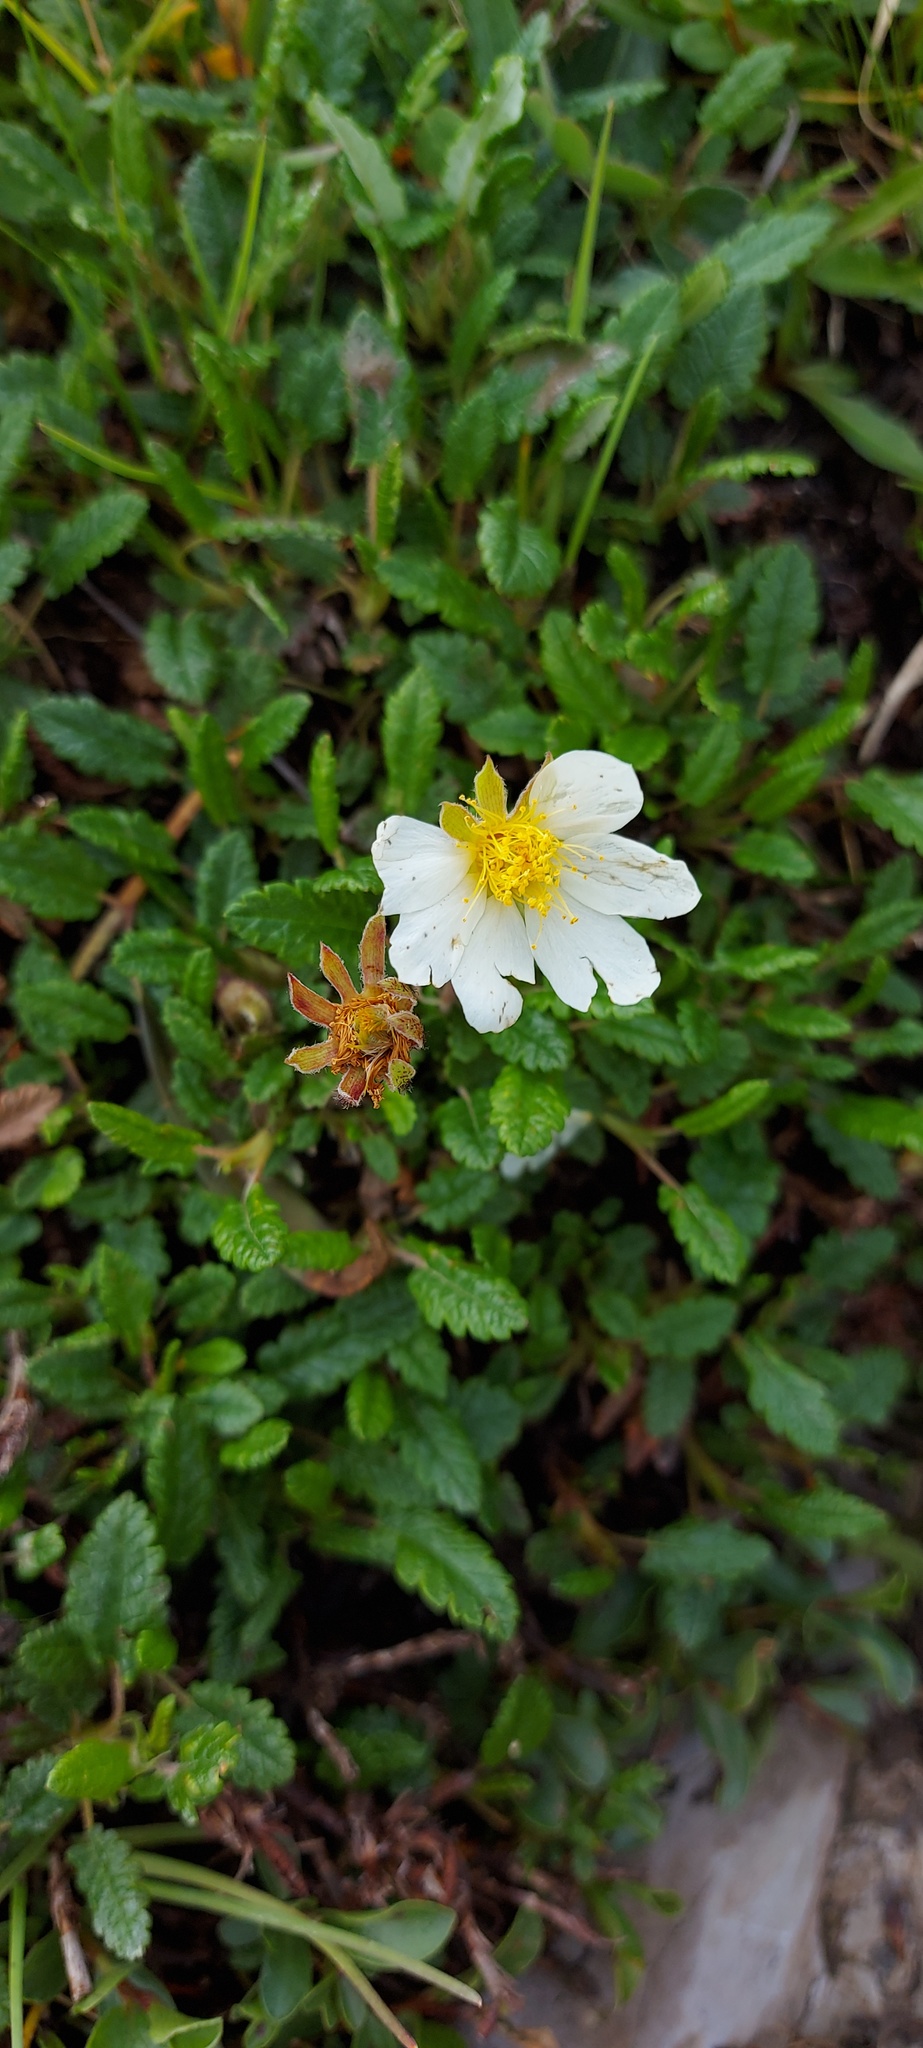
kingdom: Plantae
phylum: Tracheophyta
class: Magnoliopsida
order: Rosales
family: Rosaceae
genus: Dryas
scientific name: Dryas octopetala
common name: Eight-petal mountain-avens
